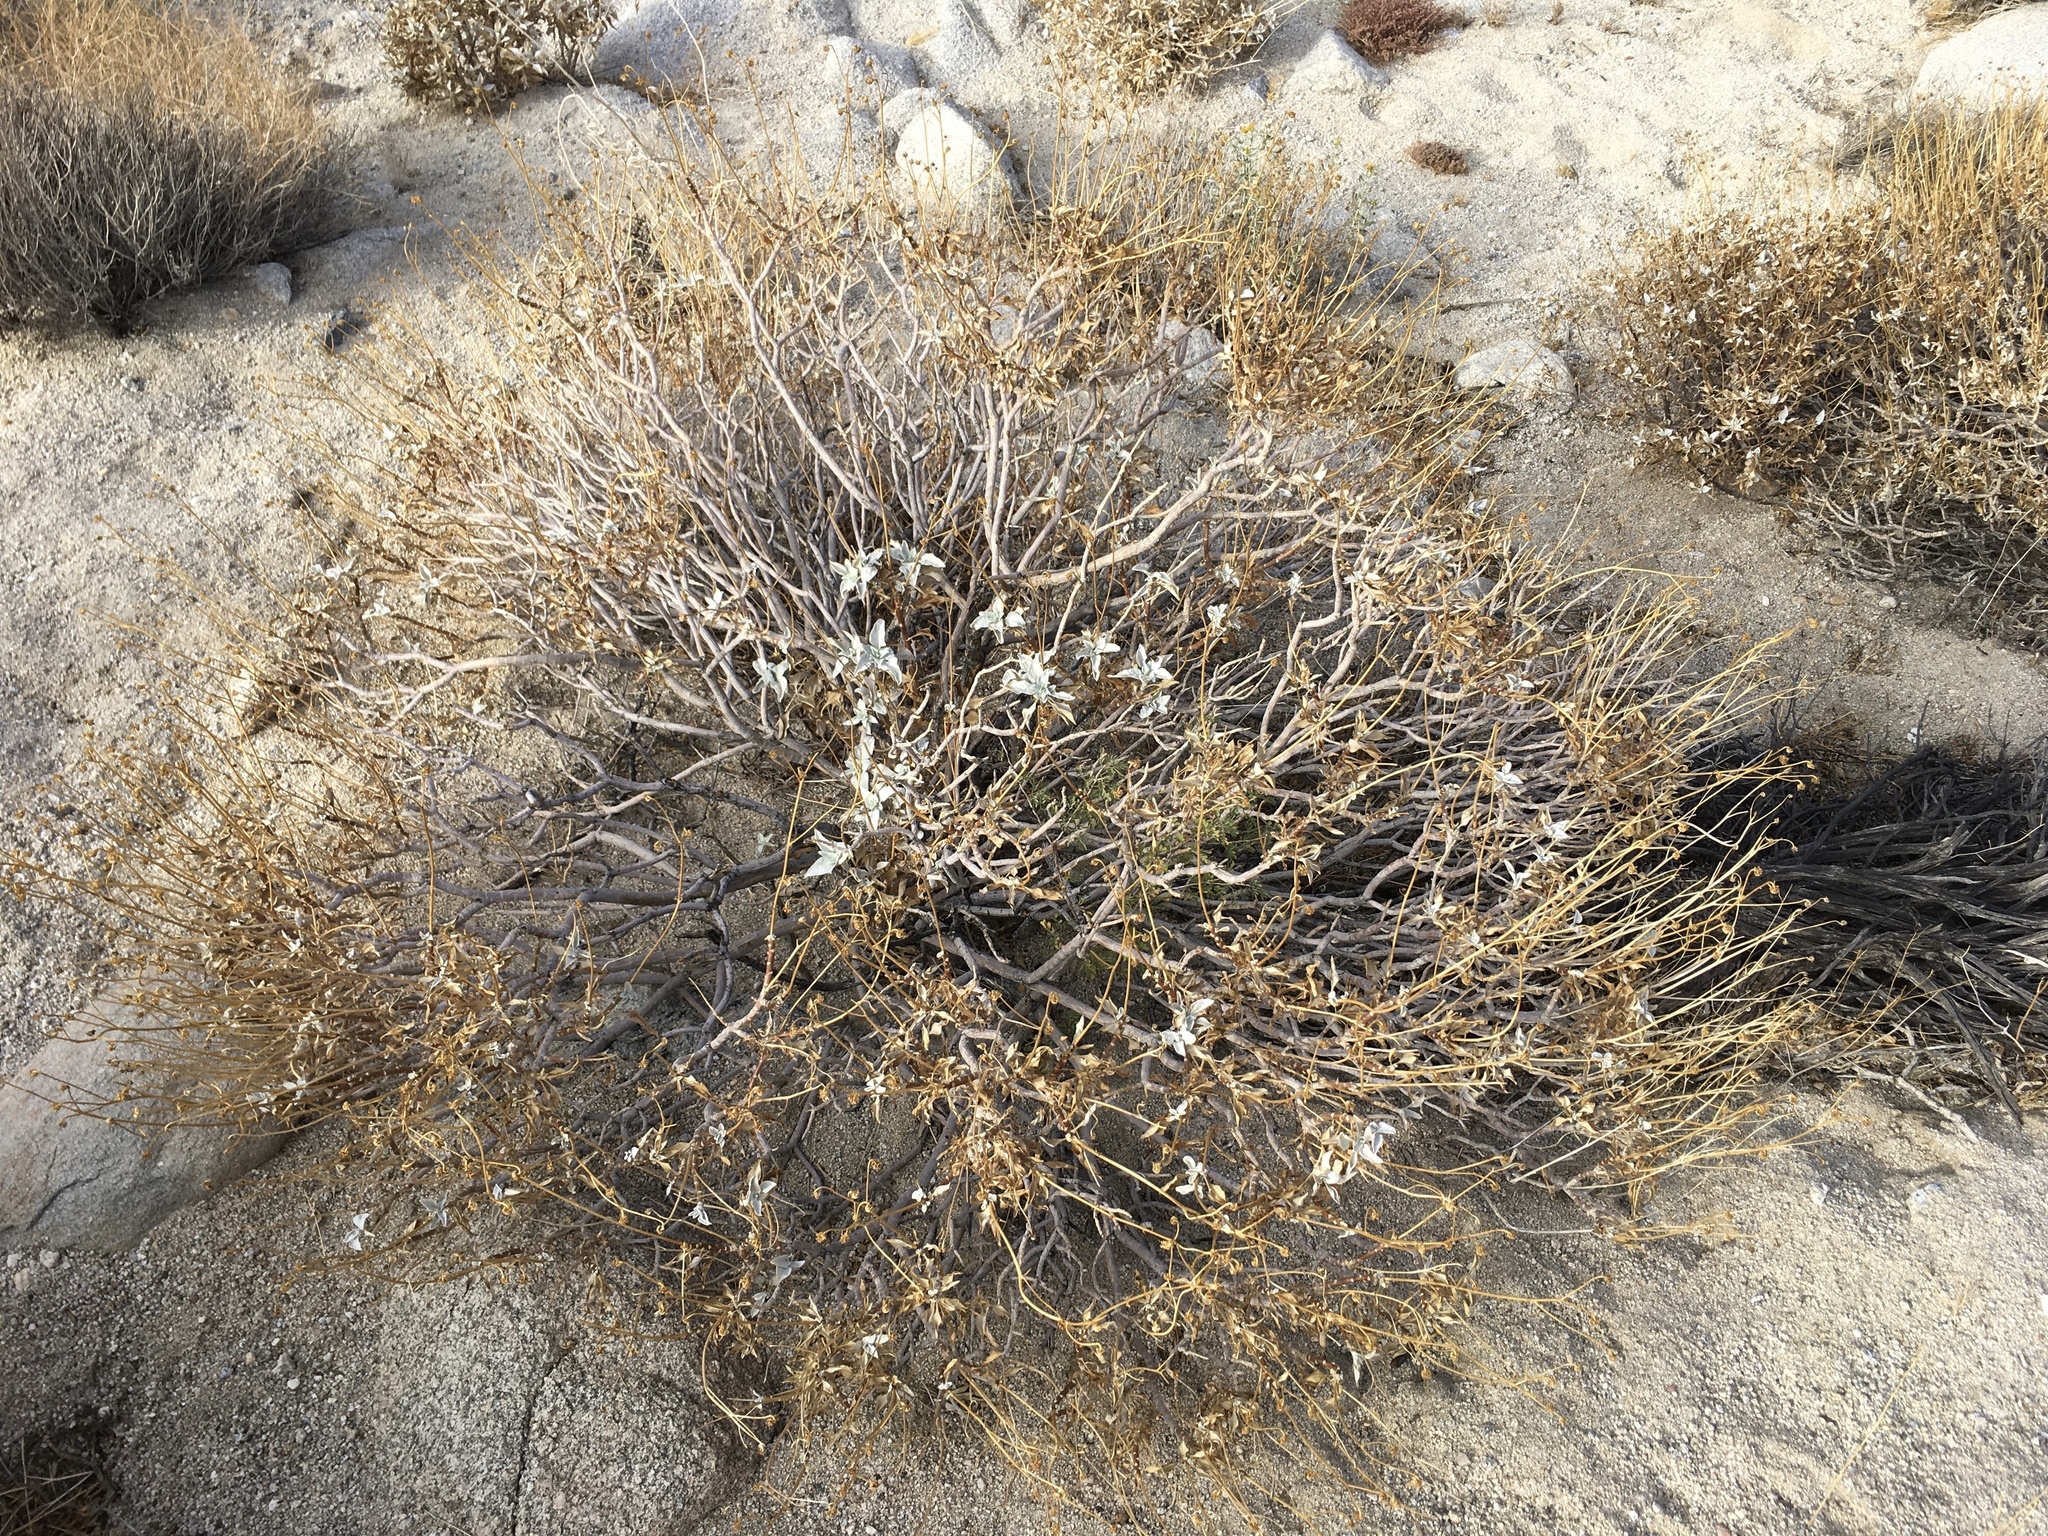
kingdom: Plantae
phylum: Tracheophyta
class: Magnoliopsida
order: Asterales
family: Asteraceae
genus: Encelia
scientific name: Encelia farinosa
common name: Brittlebush
